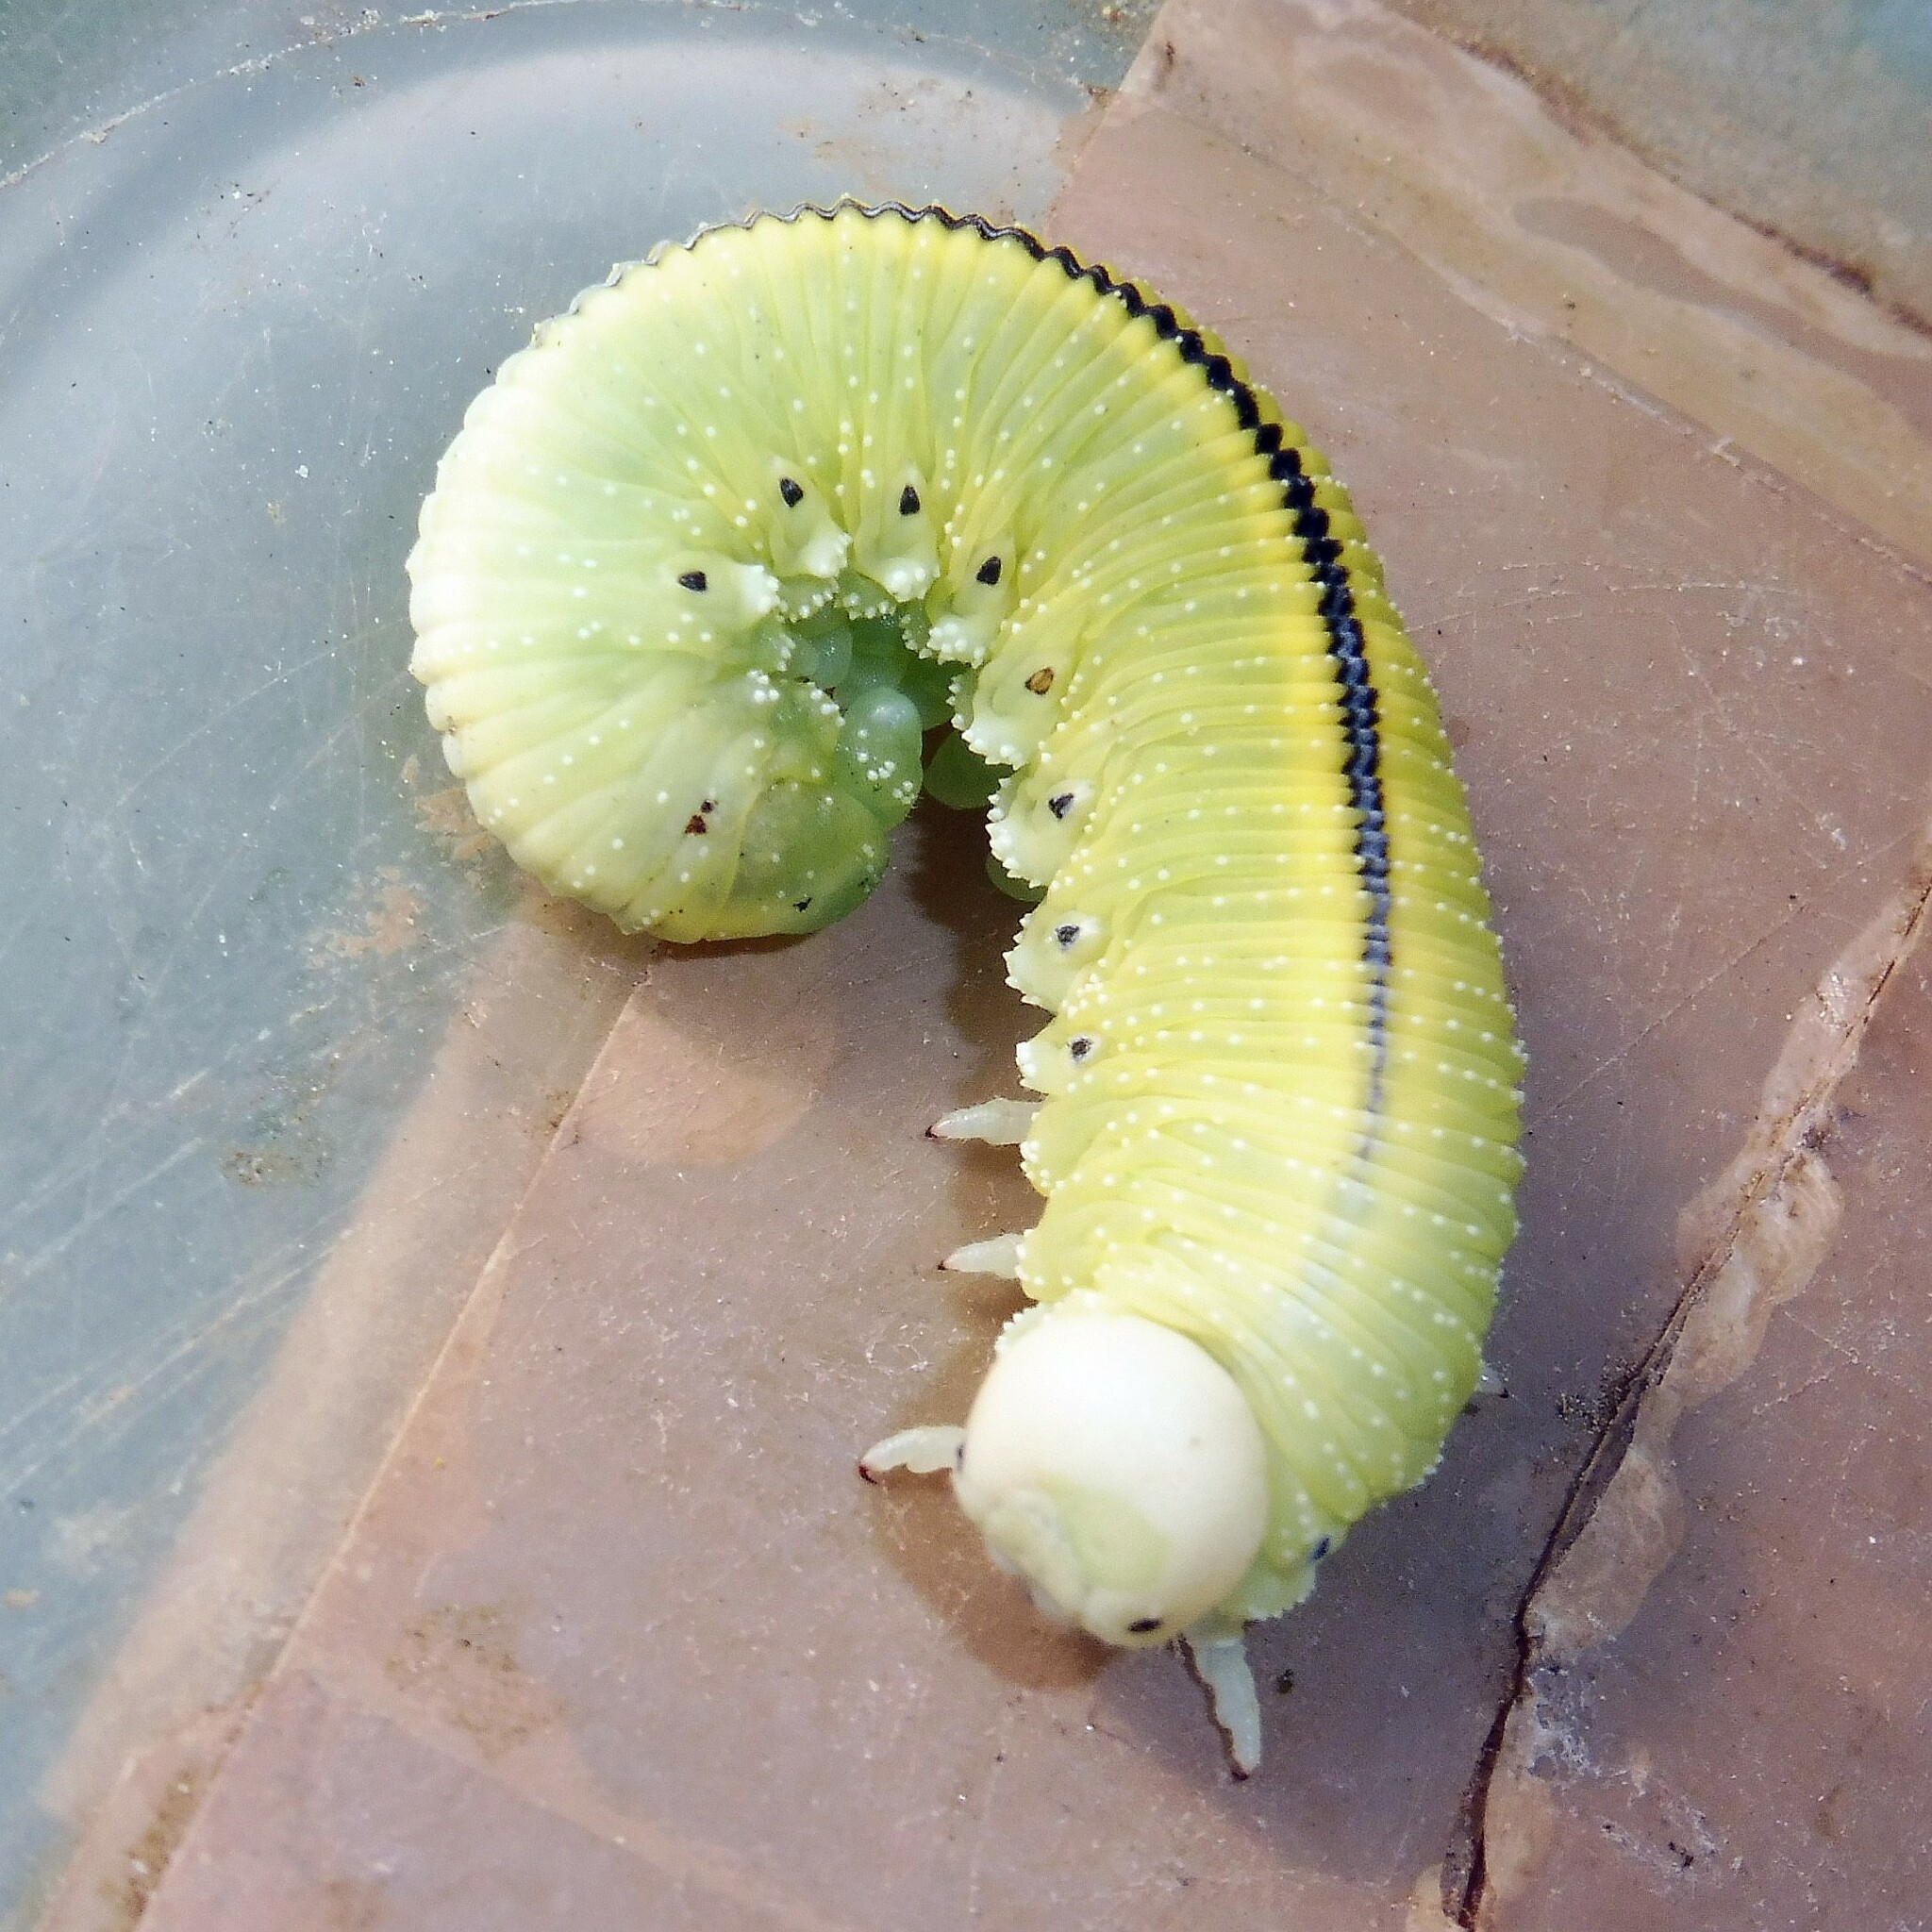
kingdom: Animalia
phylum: Arthropoda
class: Insecta
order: Hymenoptera
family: Cimbicidae
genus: Cimbex
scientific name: Cimbex femoratus
